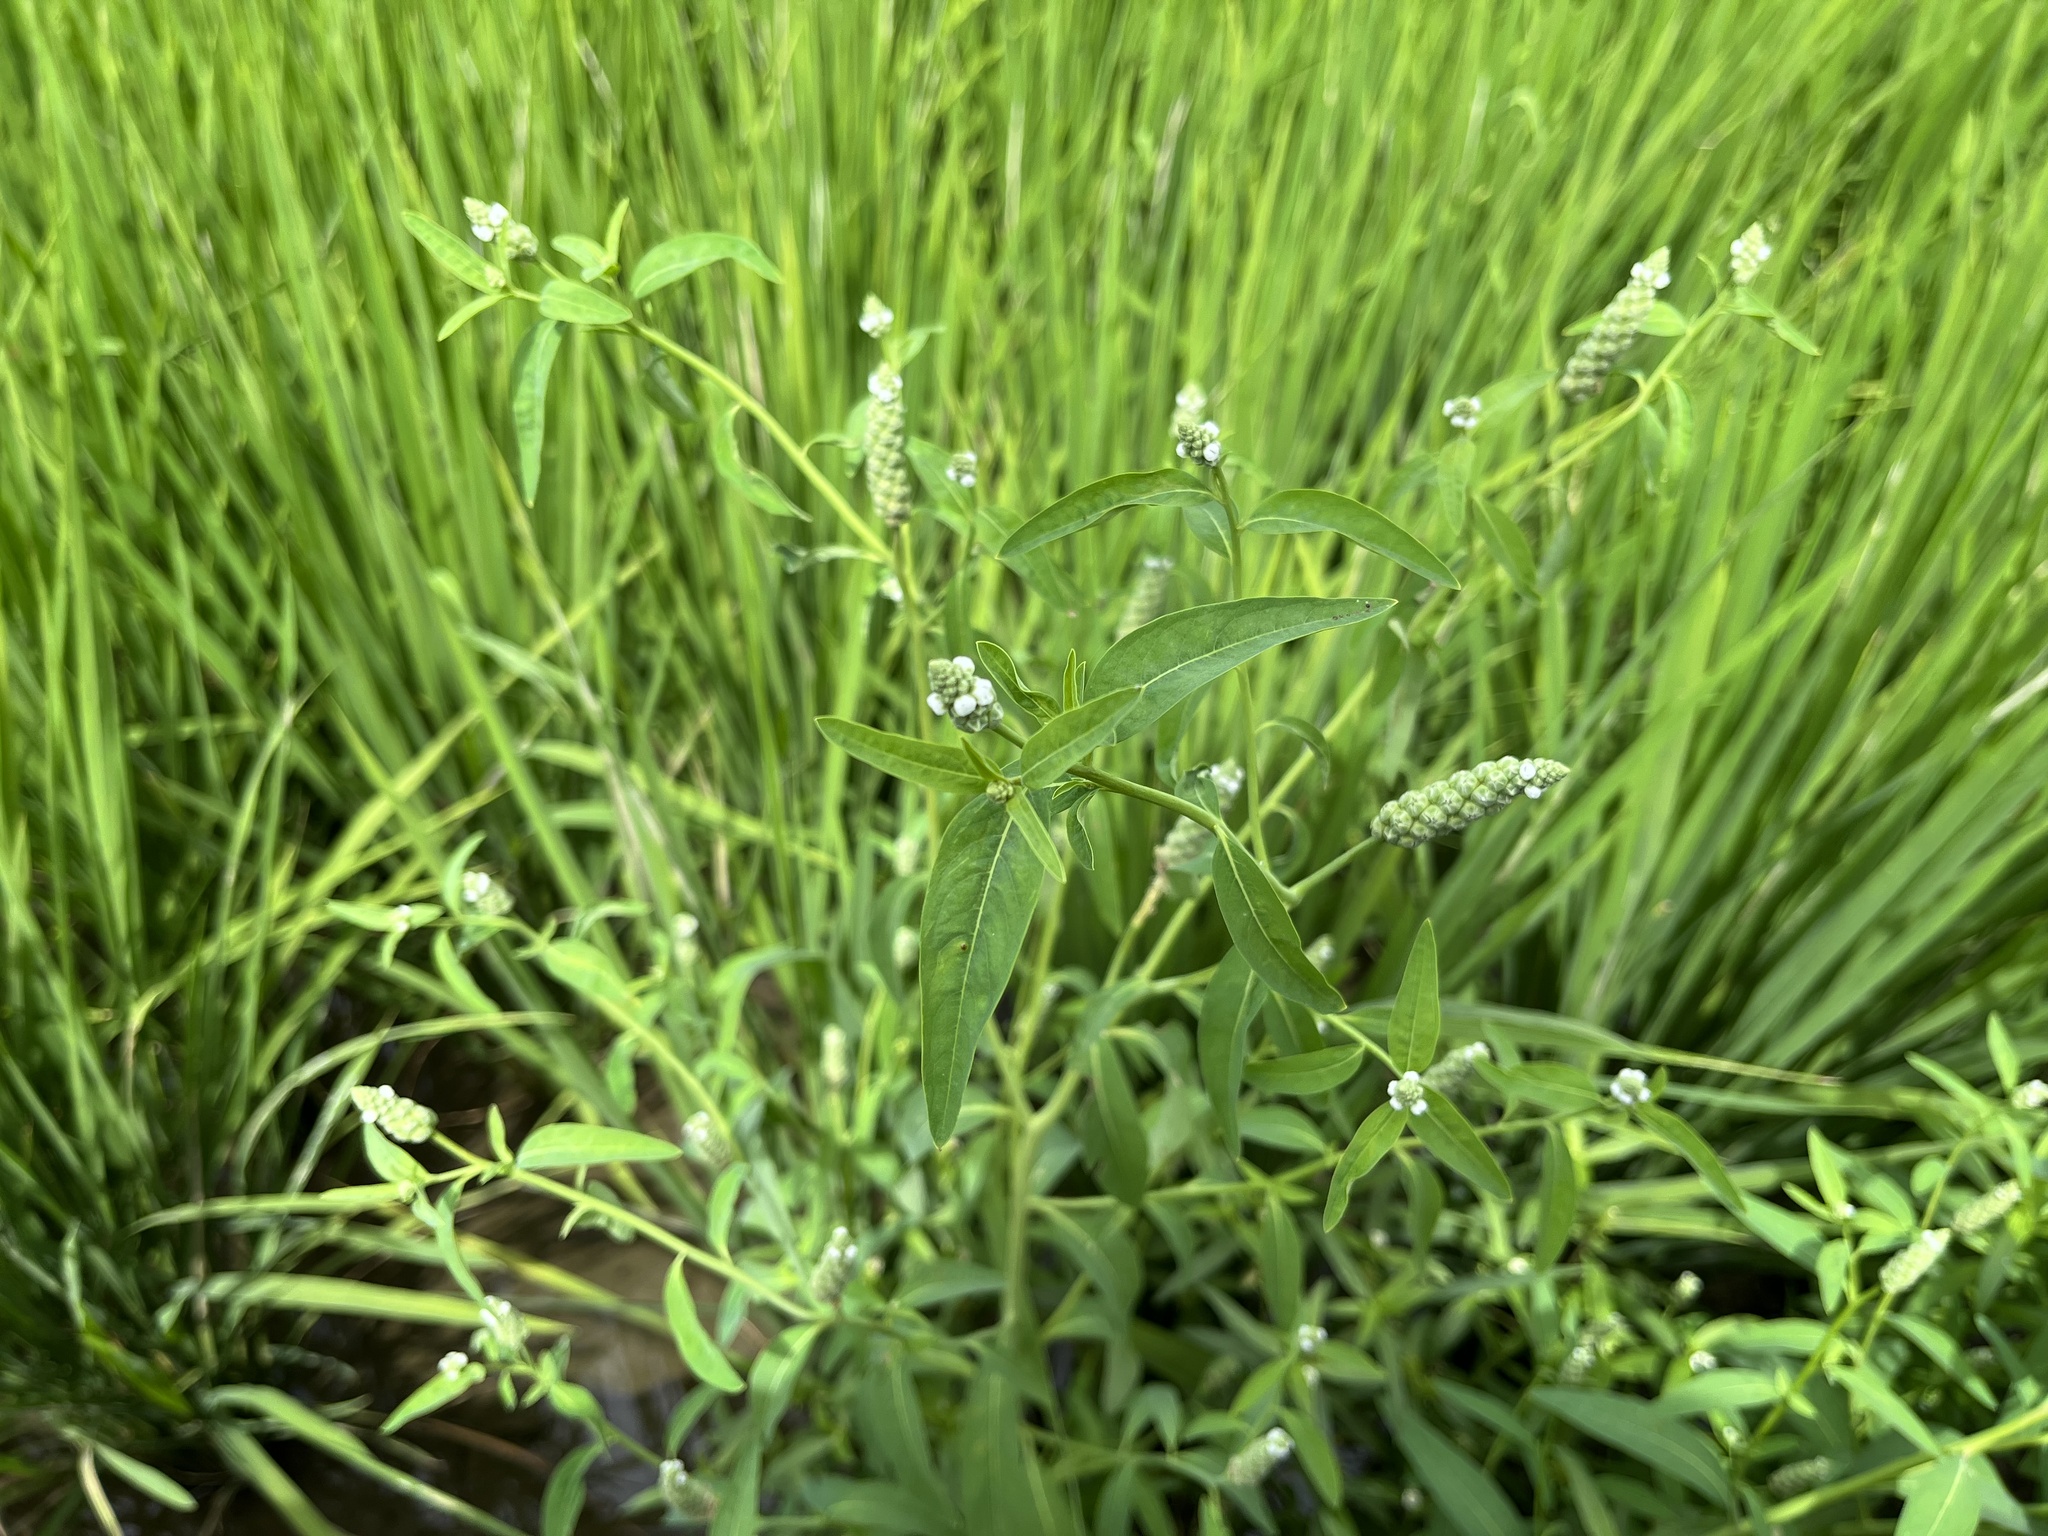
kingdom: Plantae
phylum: Tracheophyta
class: Magnoliopsida
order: Solanales
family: Sphenocleaceae
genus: Sphenoclea
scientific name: Sphenoclea zeylanica
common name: Chickenspike
